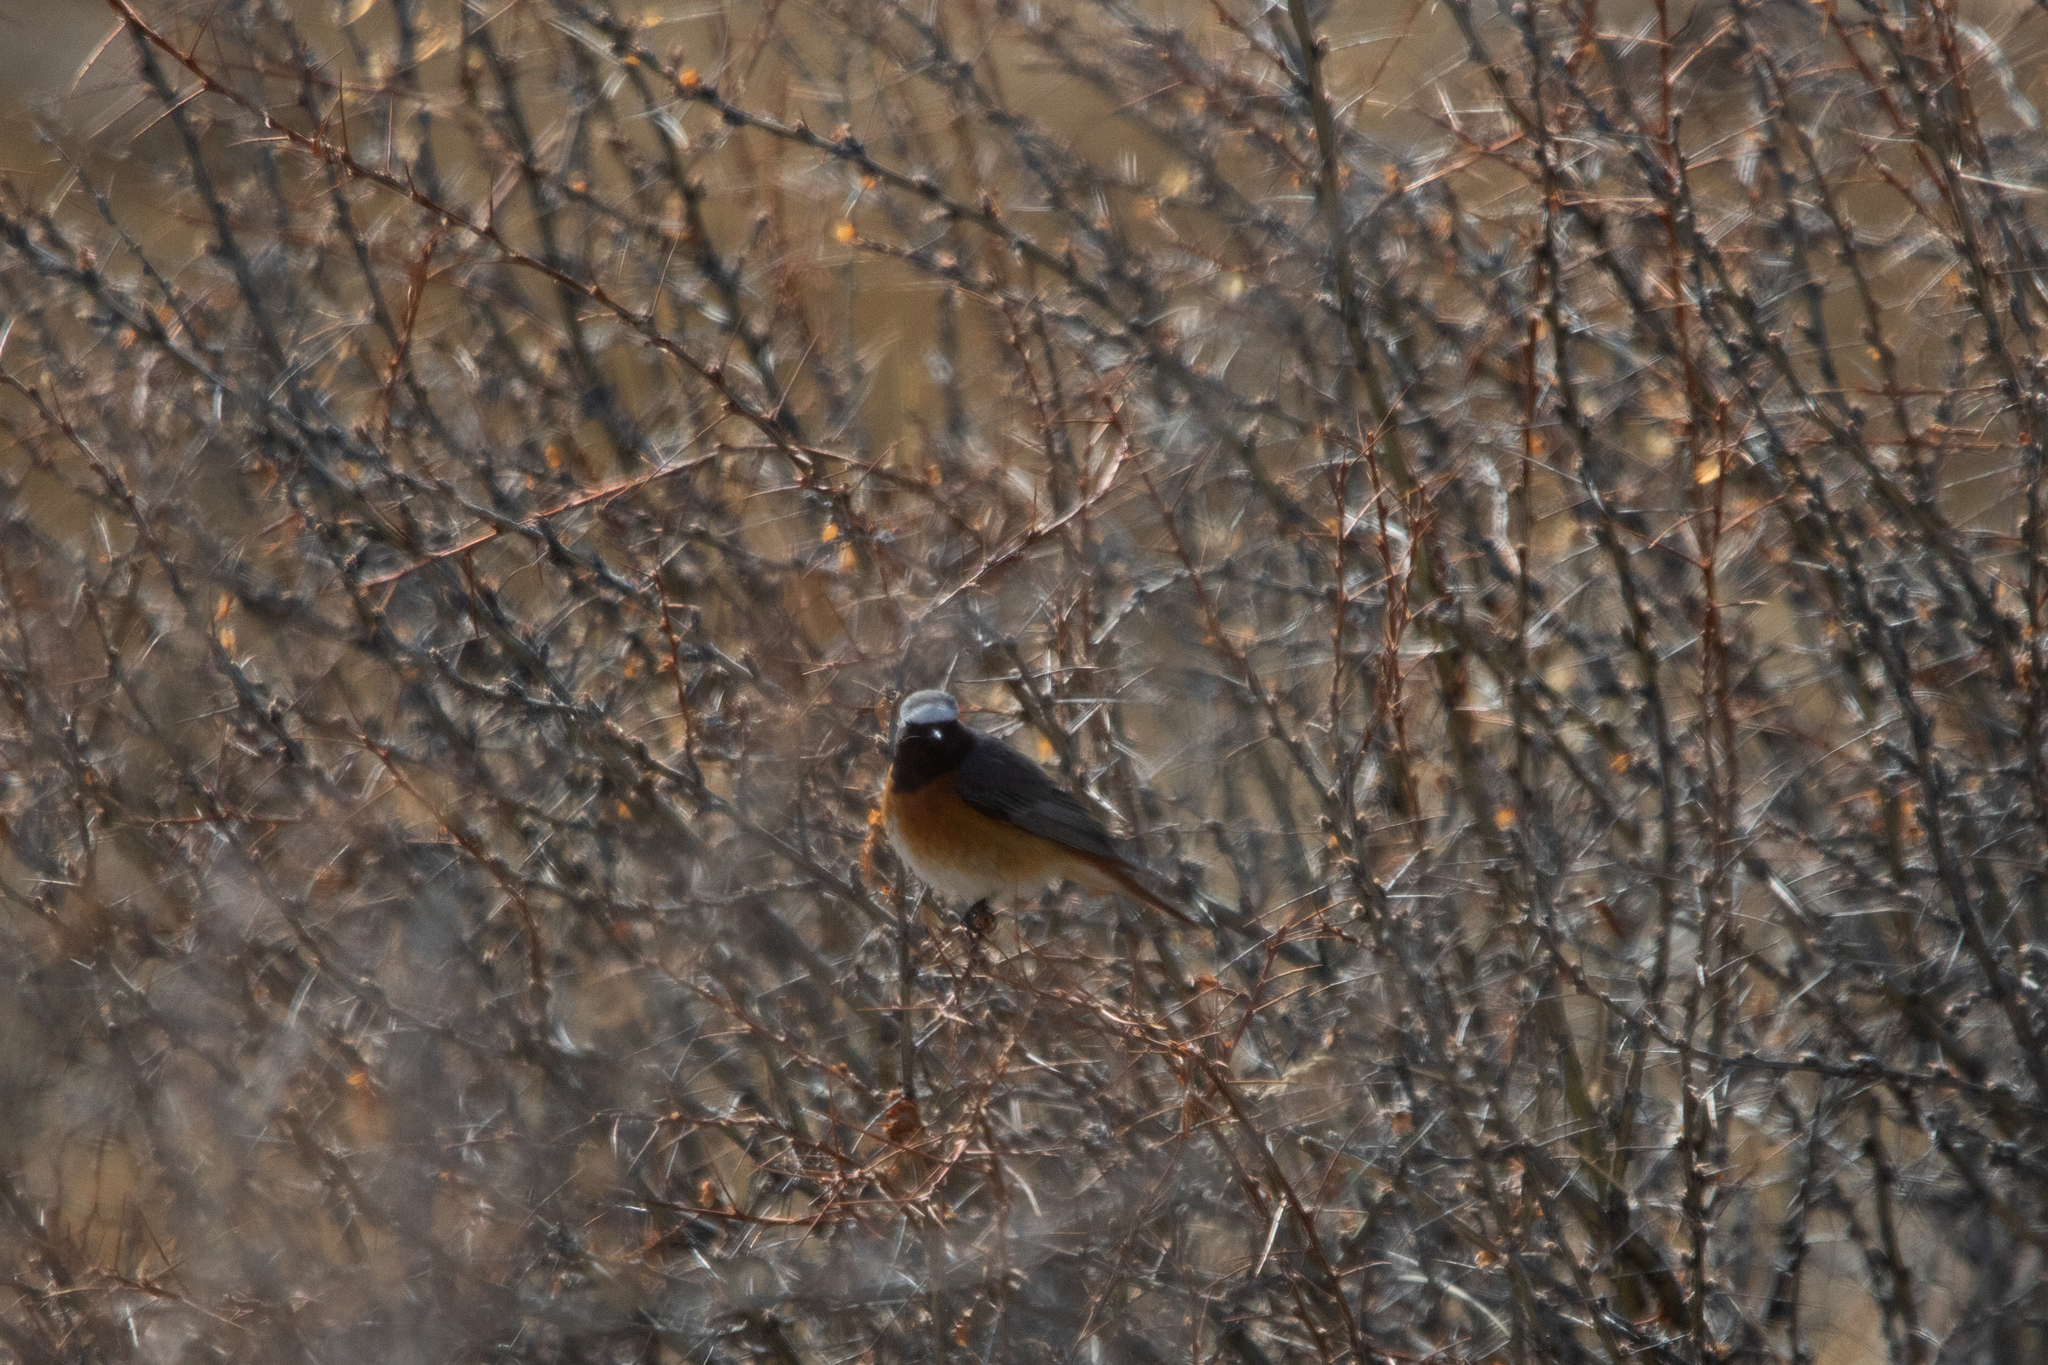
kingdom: Animalia
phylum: Chordata
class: Aves
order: Passeriformes
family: Muscicapidae
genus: Phoenicurus
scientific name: Phoenicurus phoenicurus
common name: Common redstart
